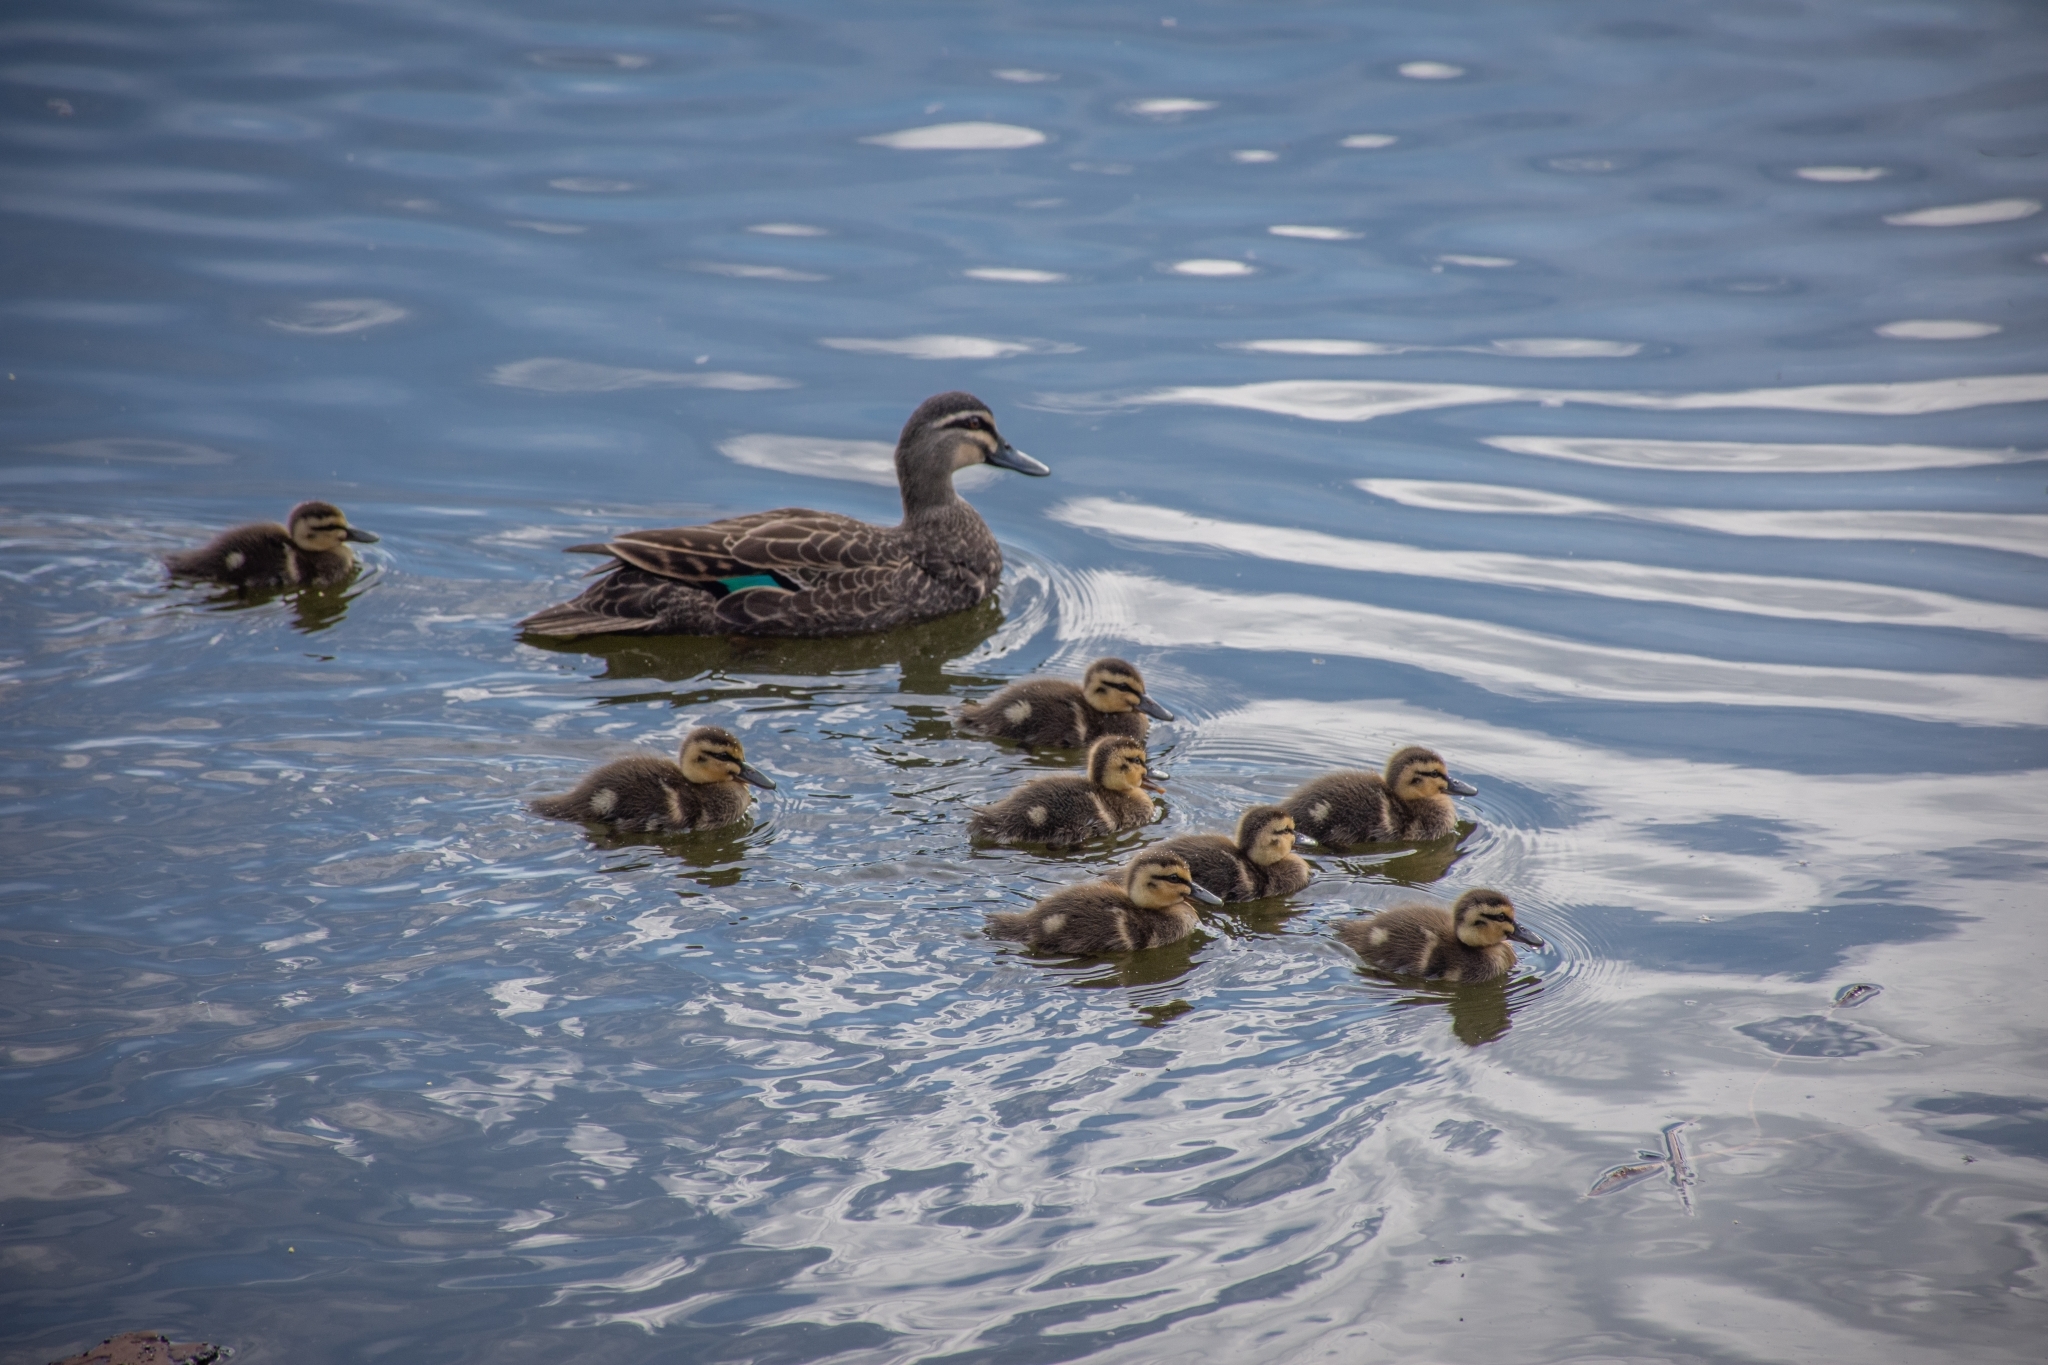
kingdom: Animalia
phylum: Chordata
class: Aves
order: Anseriformes
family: Anatidae
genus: Anas
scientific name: Anas superciliosa
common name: Pacific black duck
